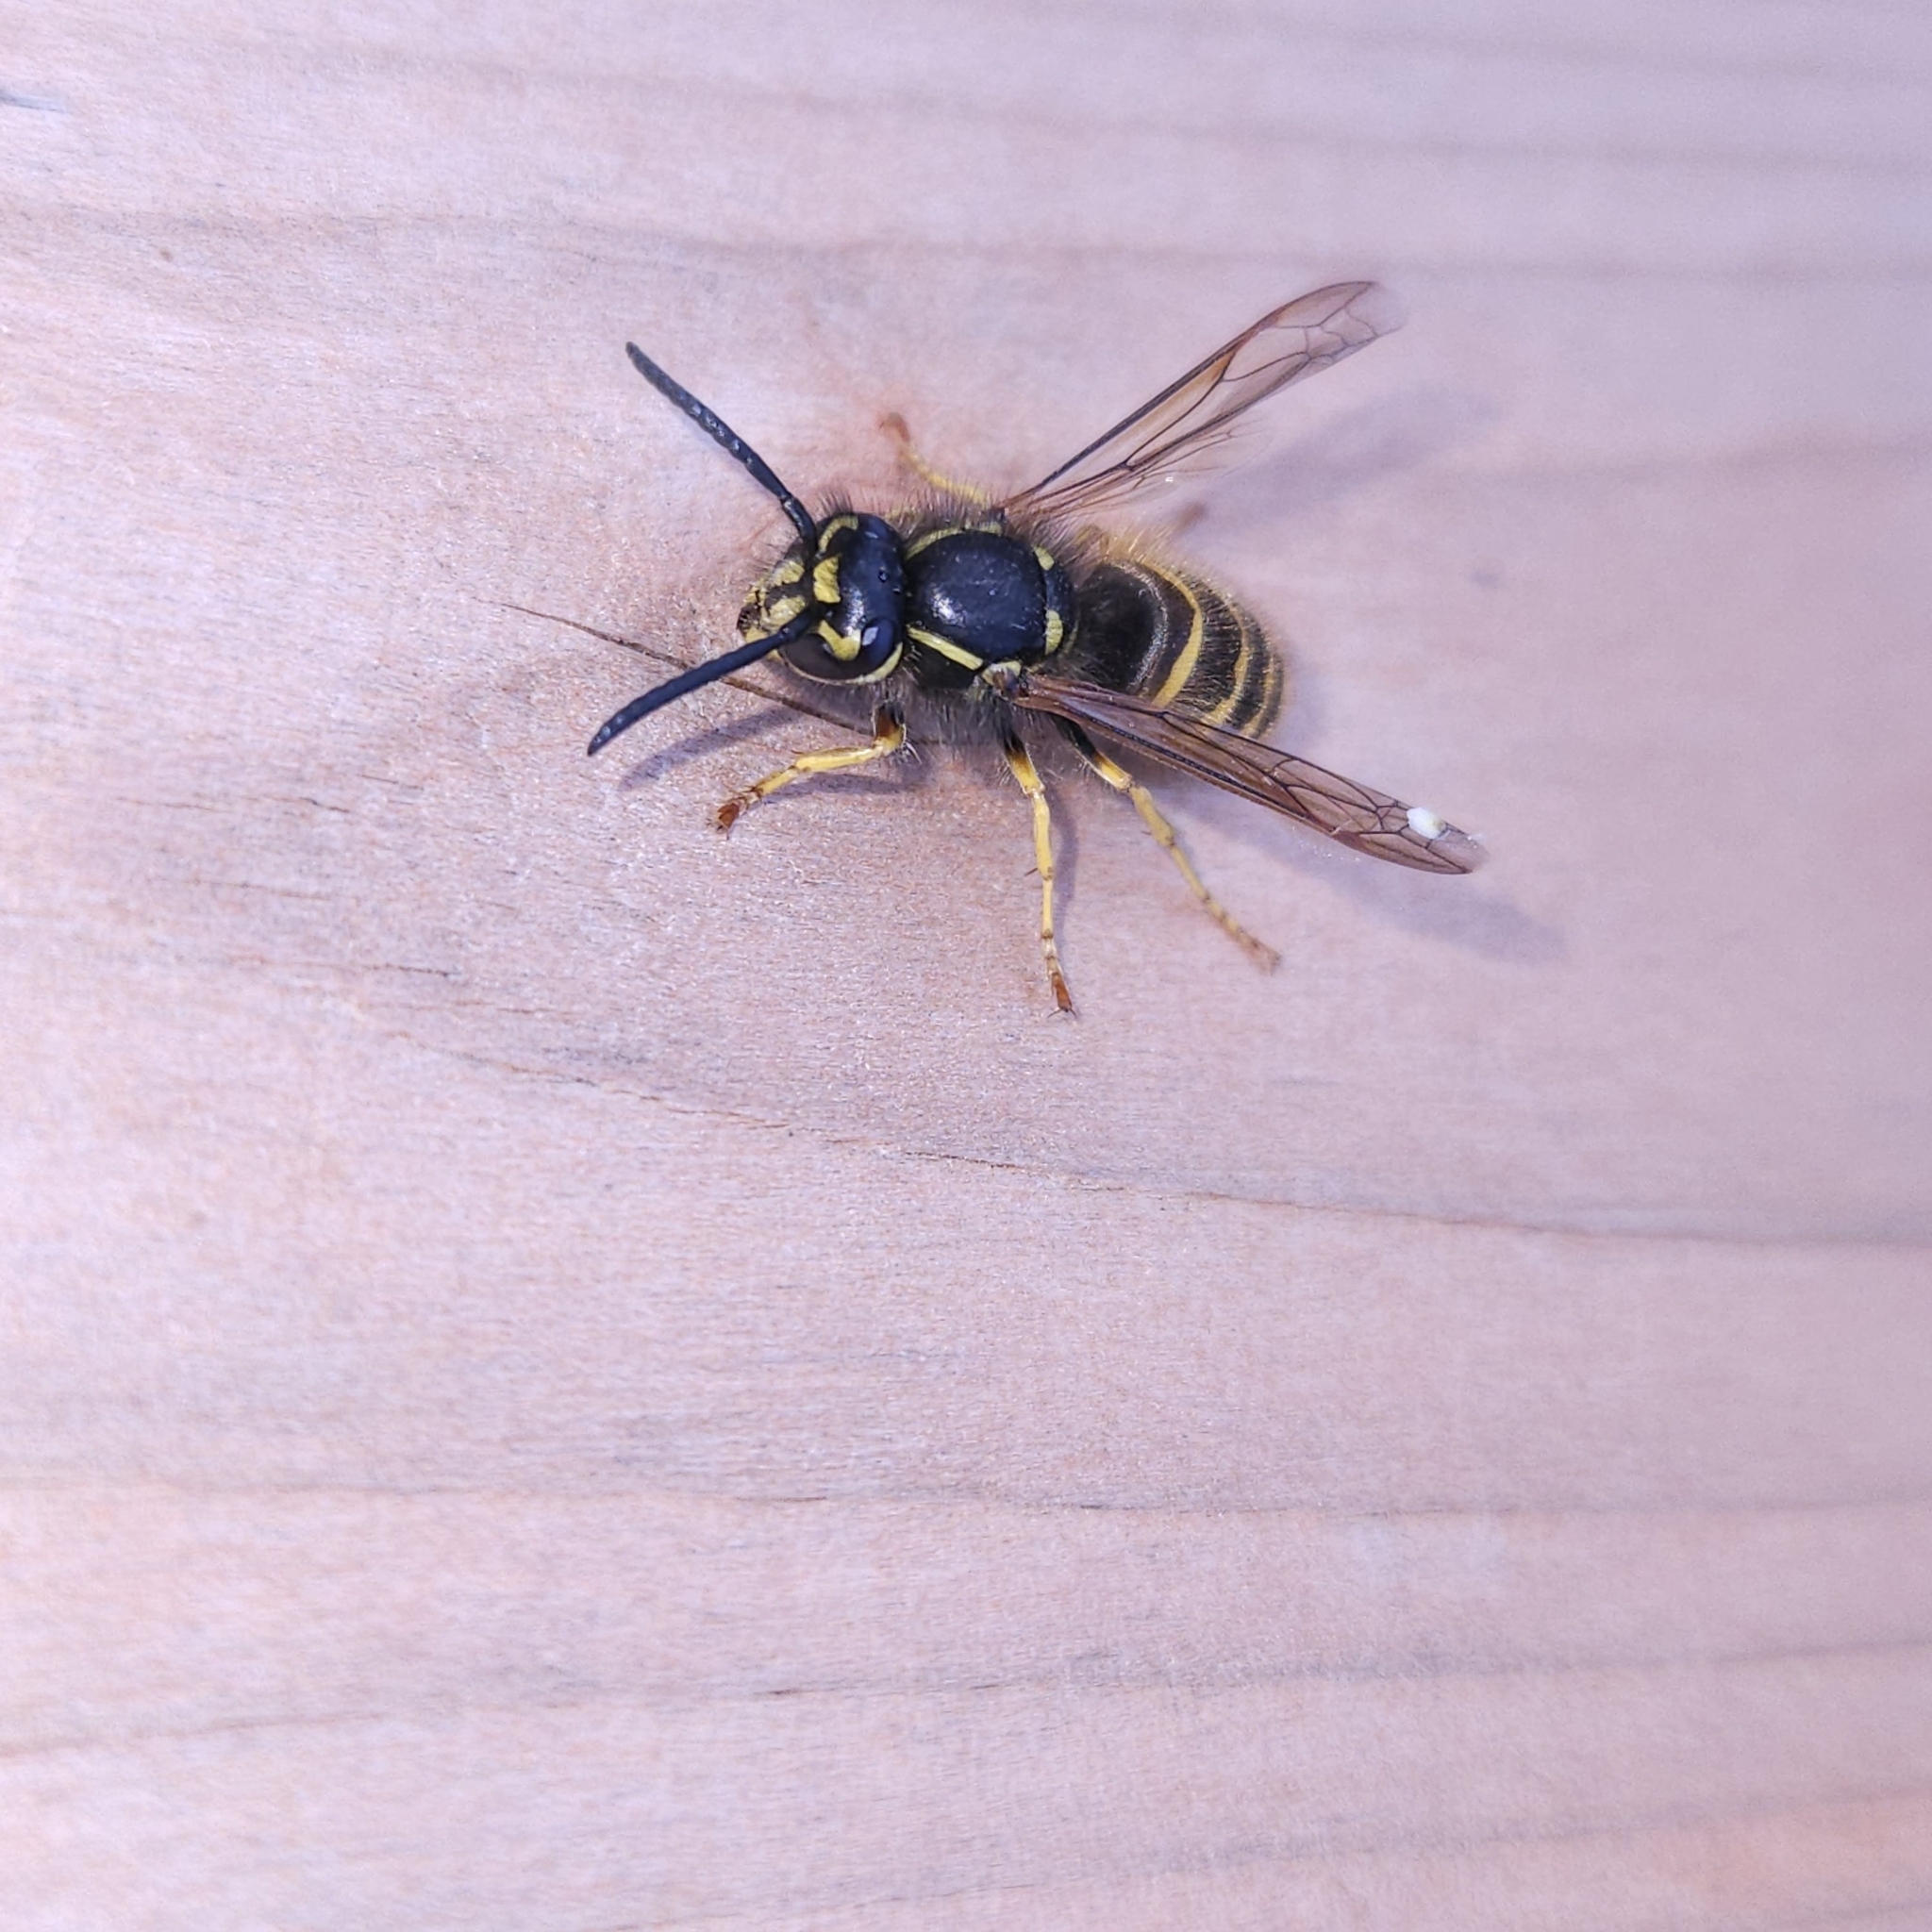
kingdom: Animalia
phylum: Arthropoda
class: Insecta
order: Hymenoptera
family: Vespidae
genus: Vespula
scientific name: Vespula alascensis
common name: Alaska yellowjacket
